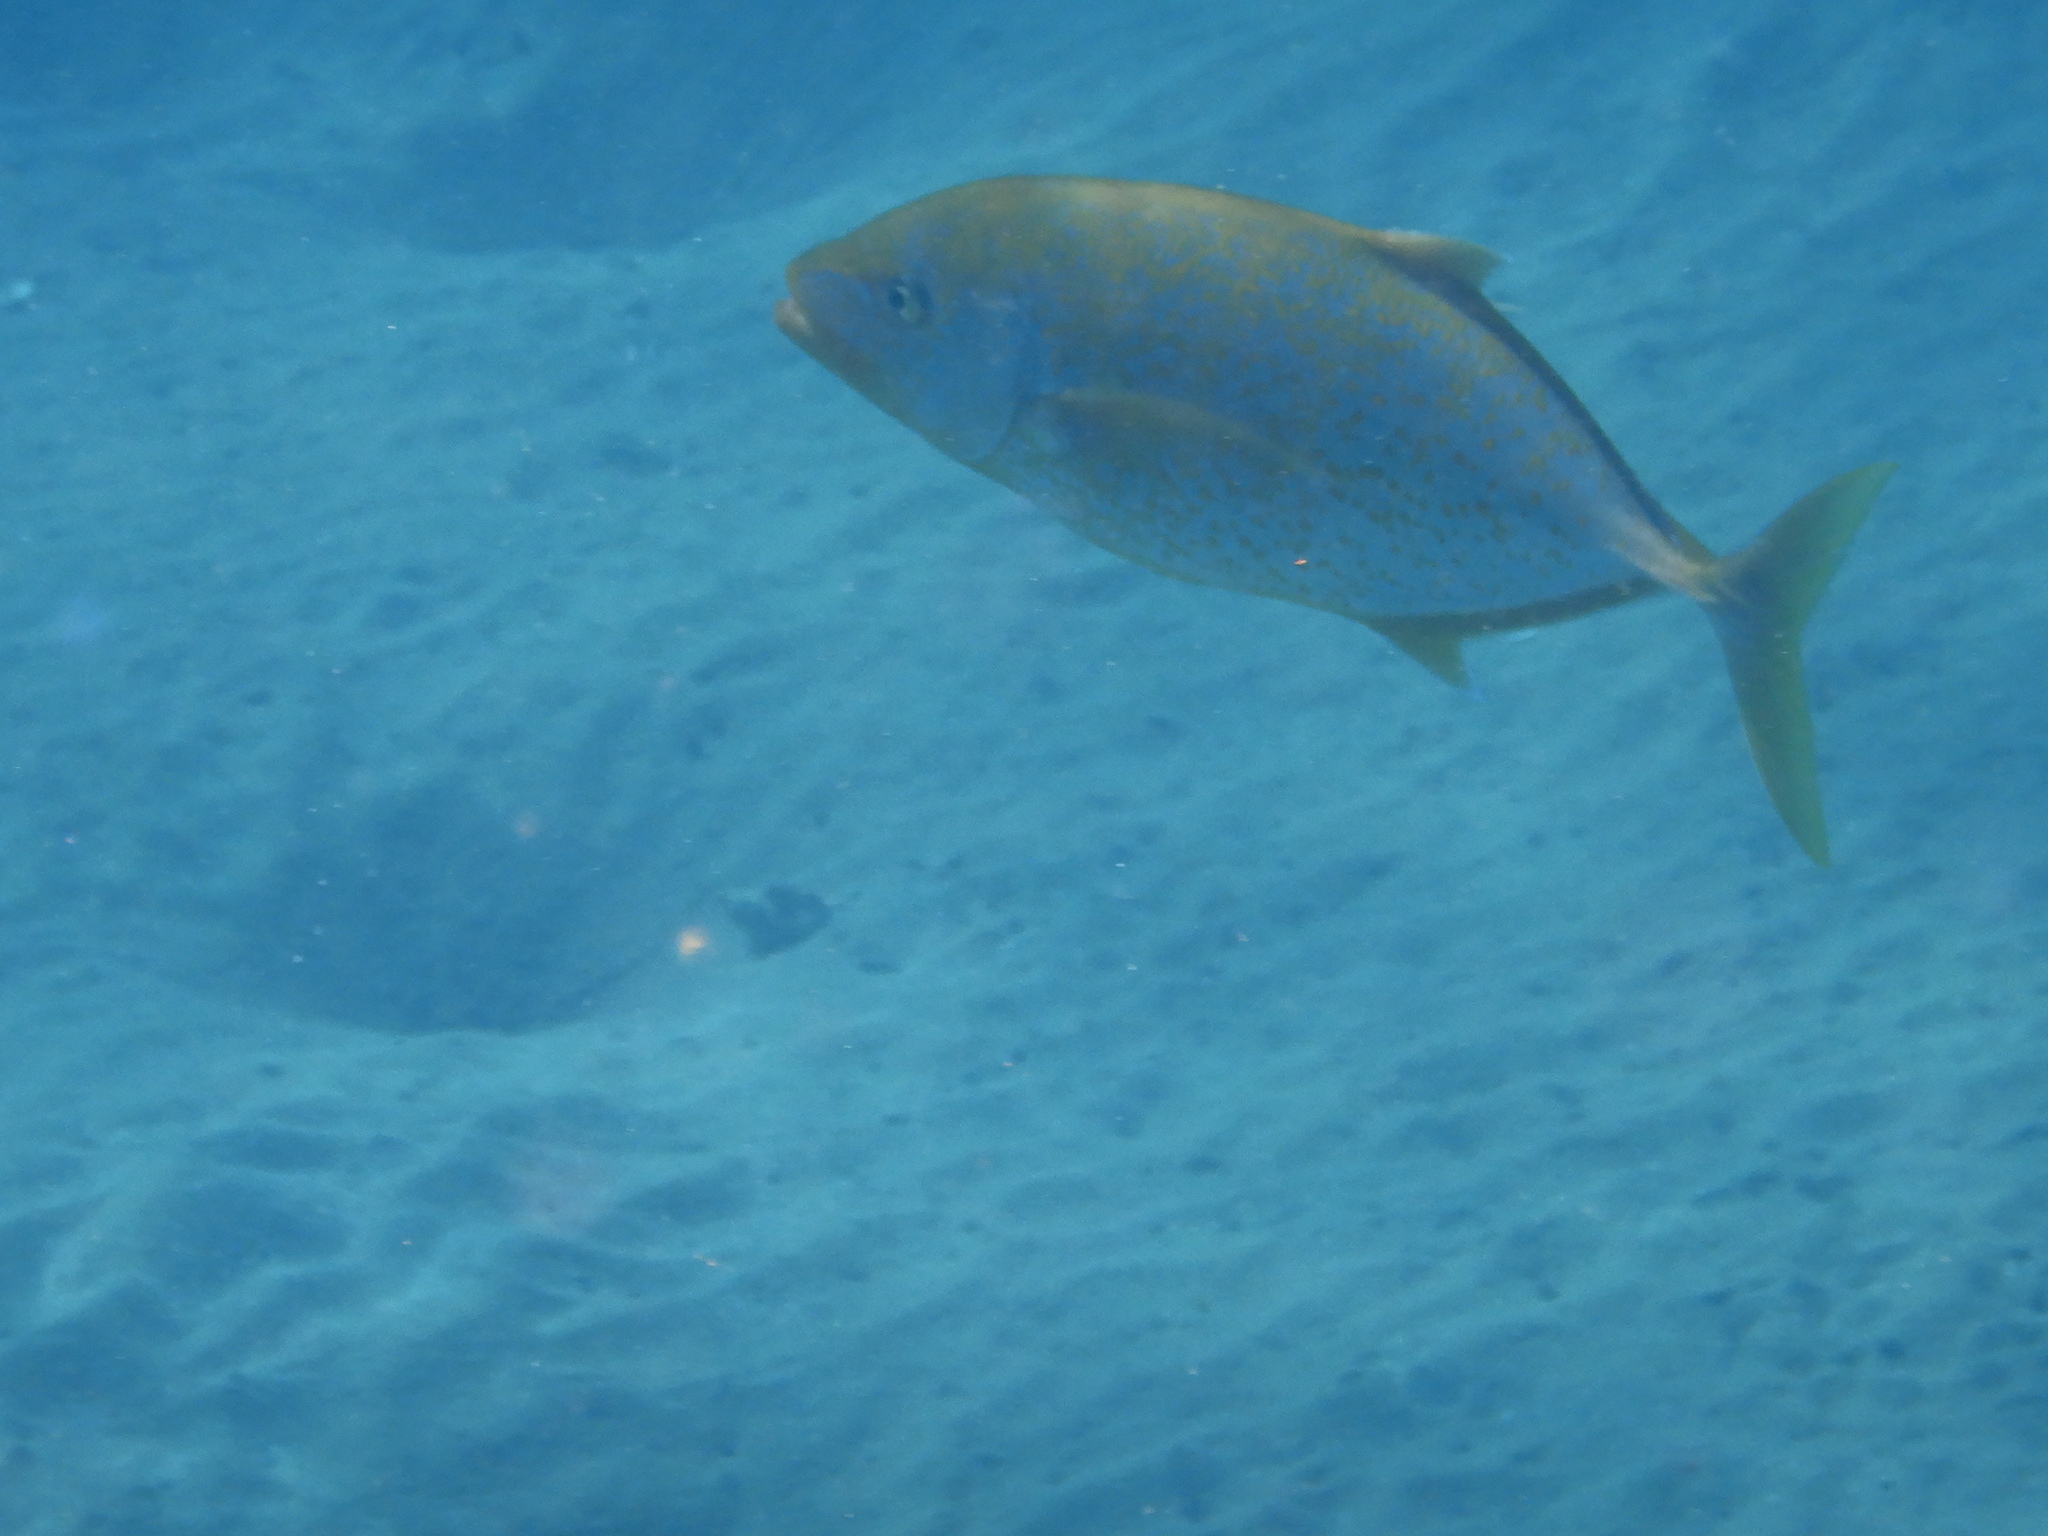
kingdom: Animalia
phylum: Chordata
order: Perciformes
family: Carangidae
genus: Flavocaranx
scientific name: Flavocaranx bajad
